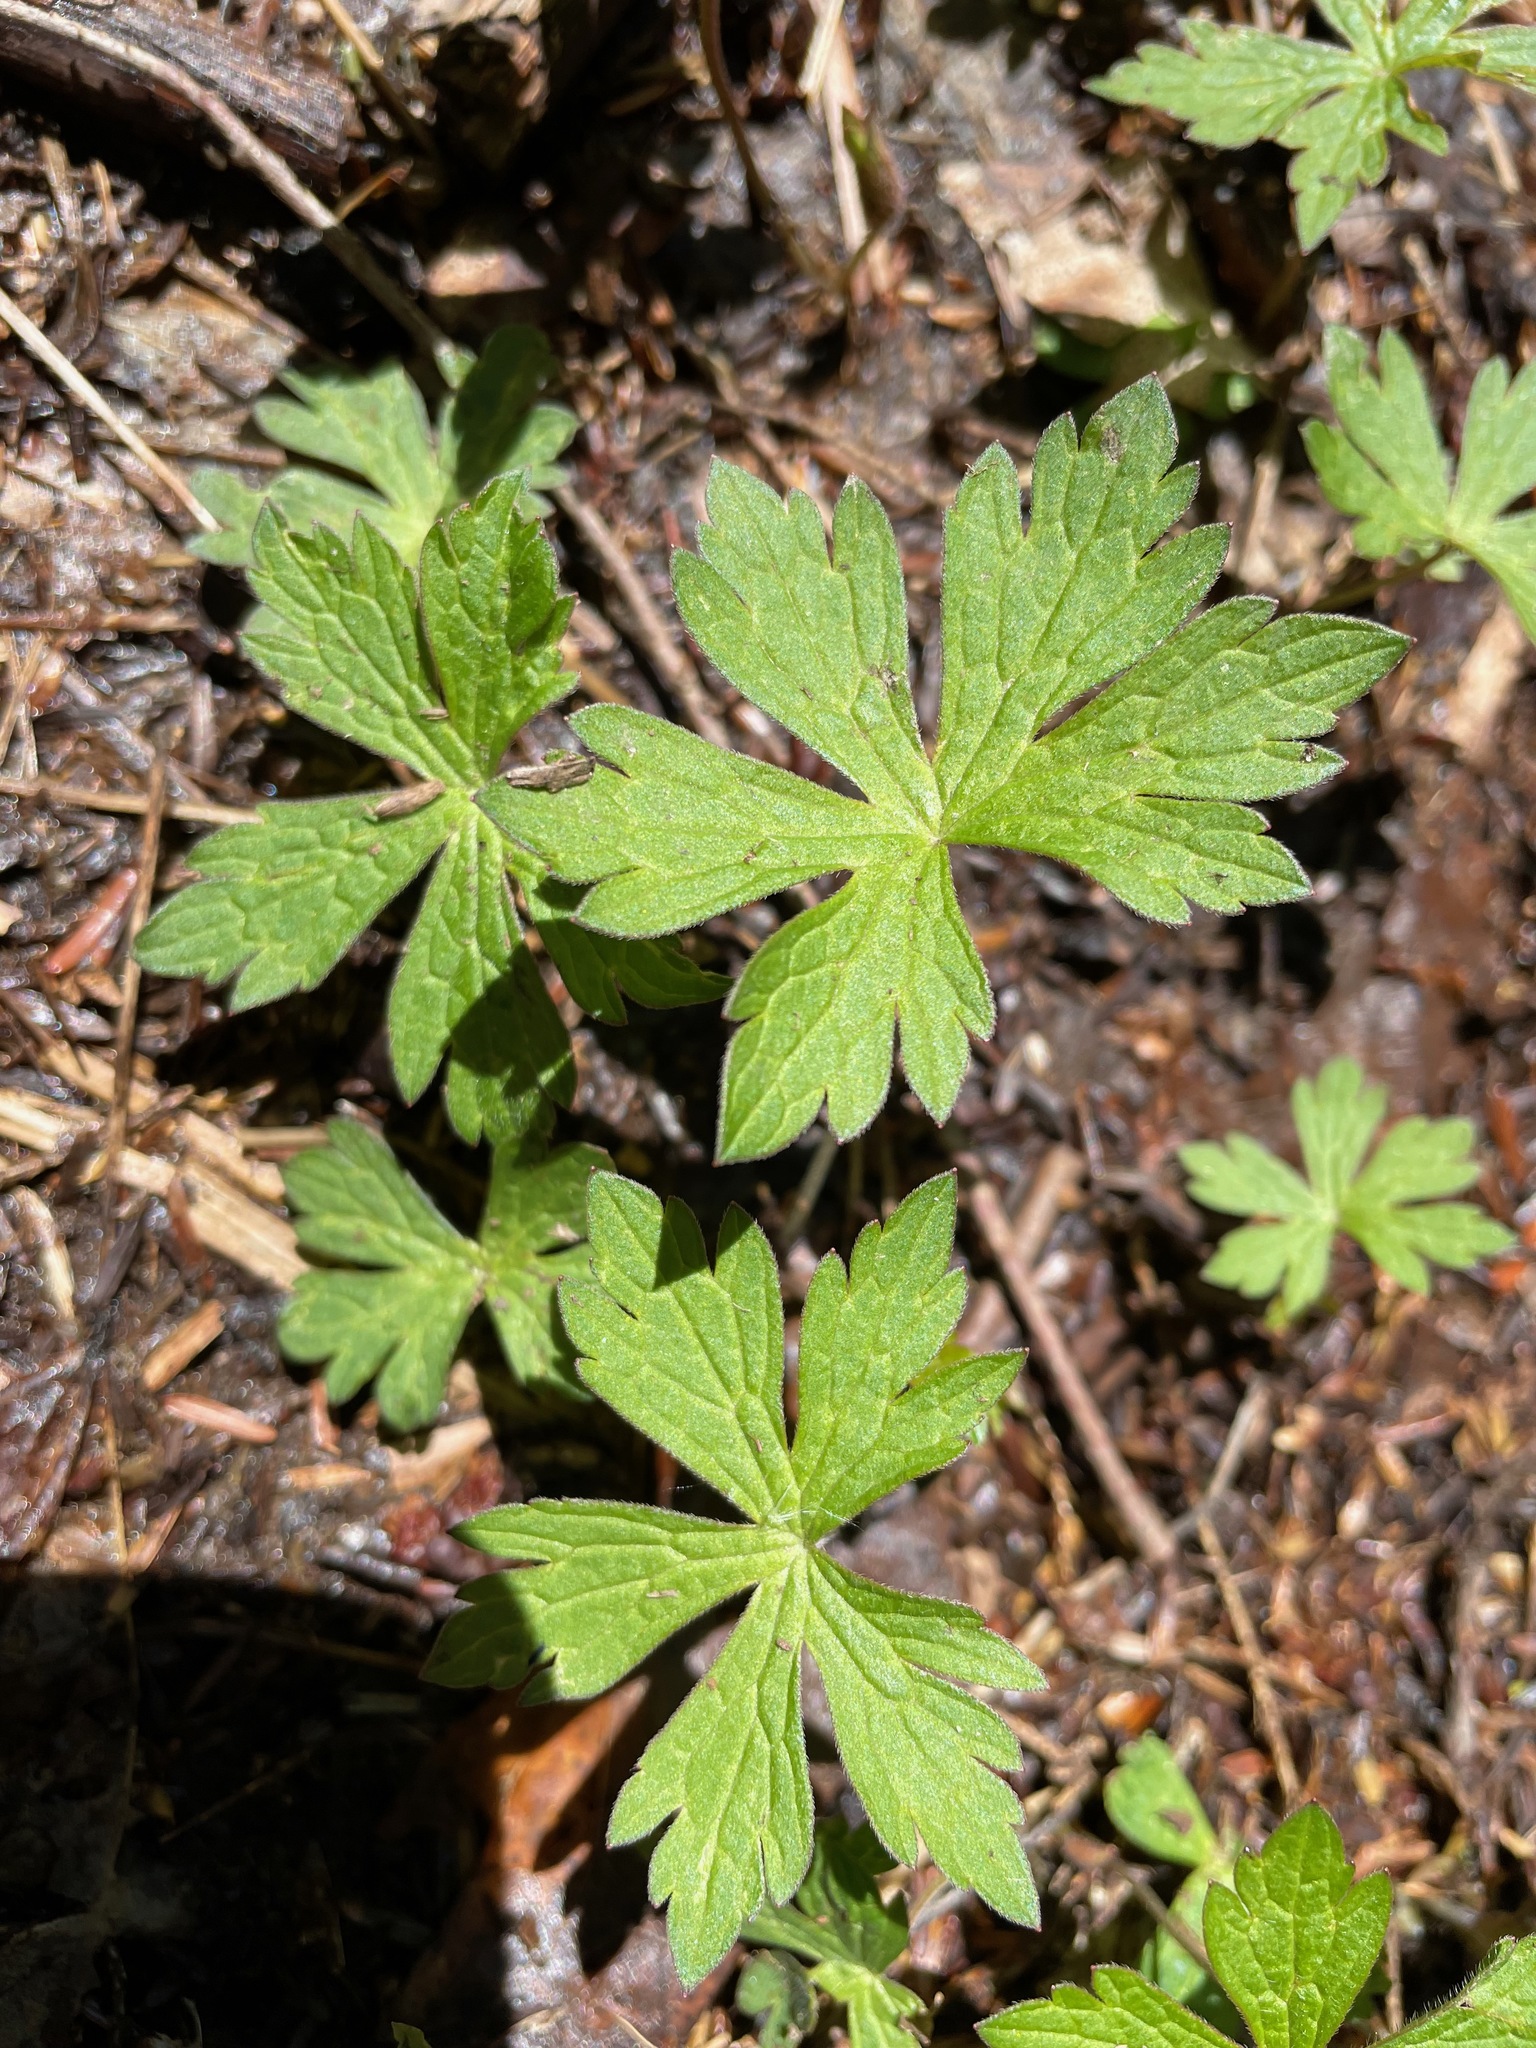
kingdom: Plantae
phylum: Tracheophyta
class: Magnoliopsida
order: Geraniales
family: Geraniaceae
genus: Geranium
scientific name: Geranium maculatum
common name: Spotted geranium
